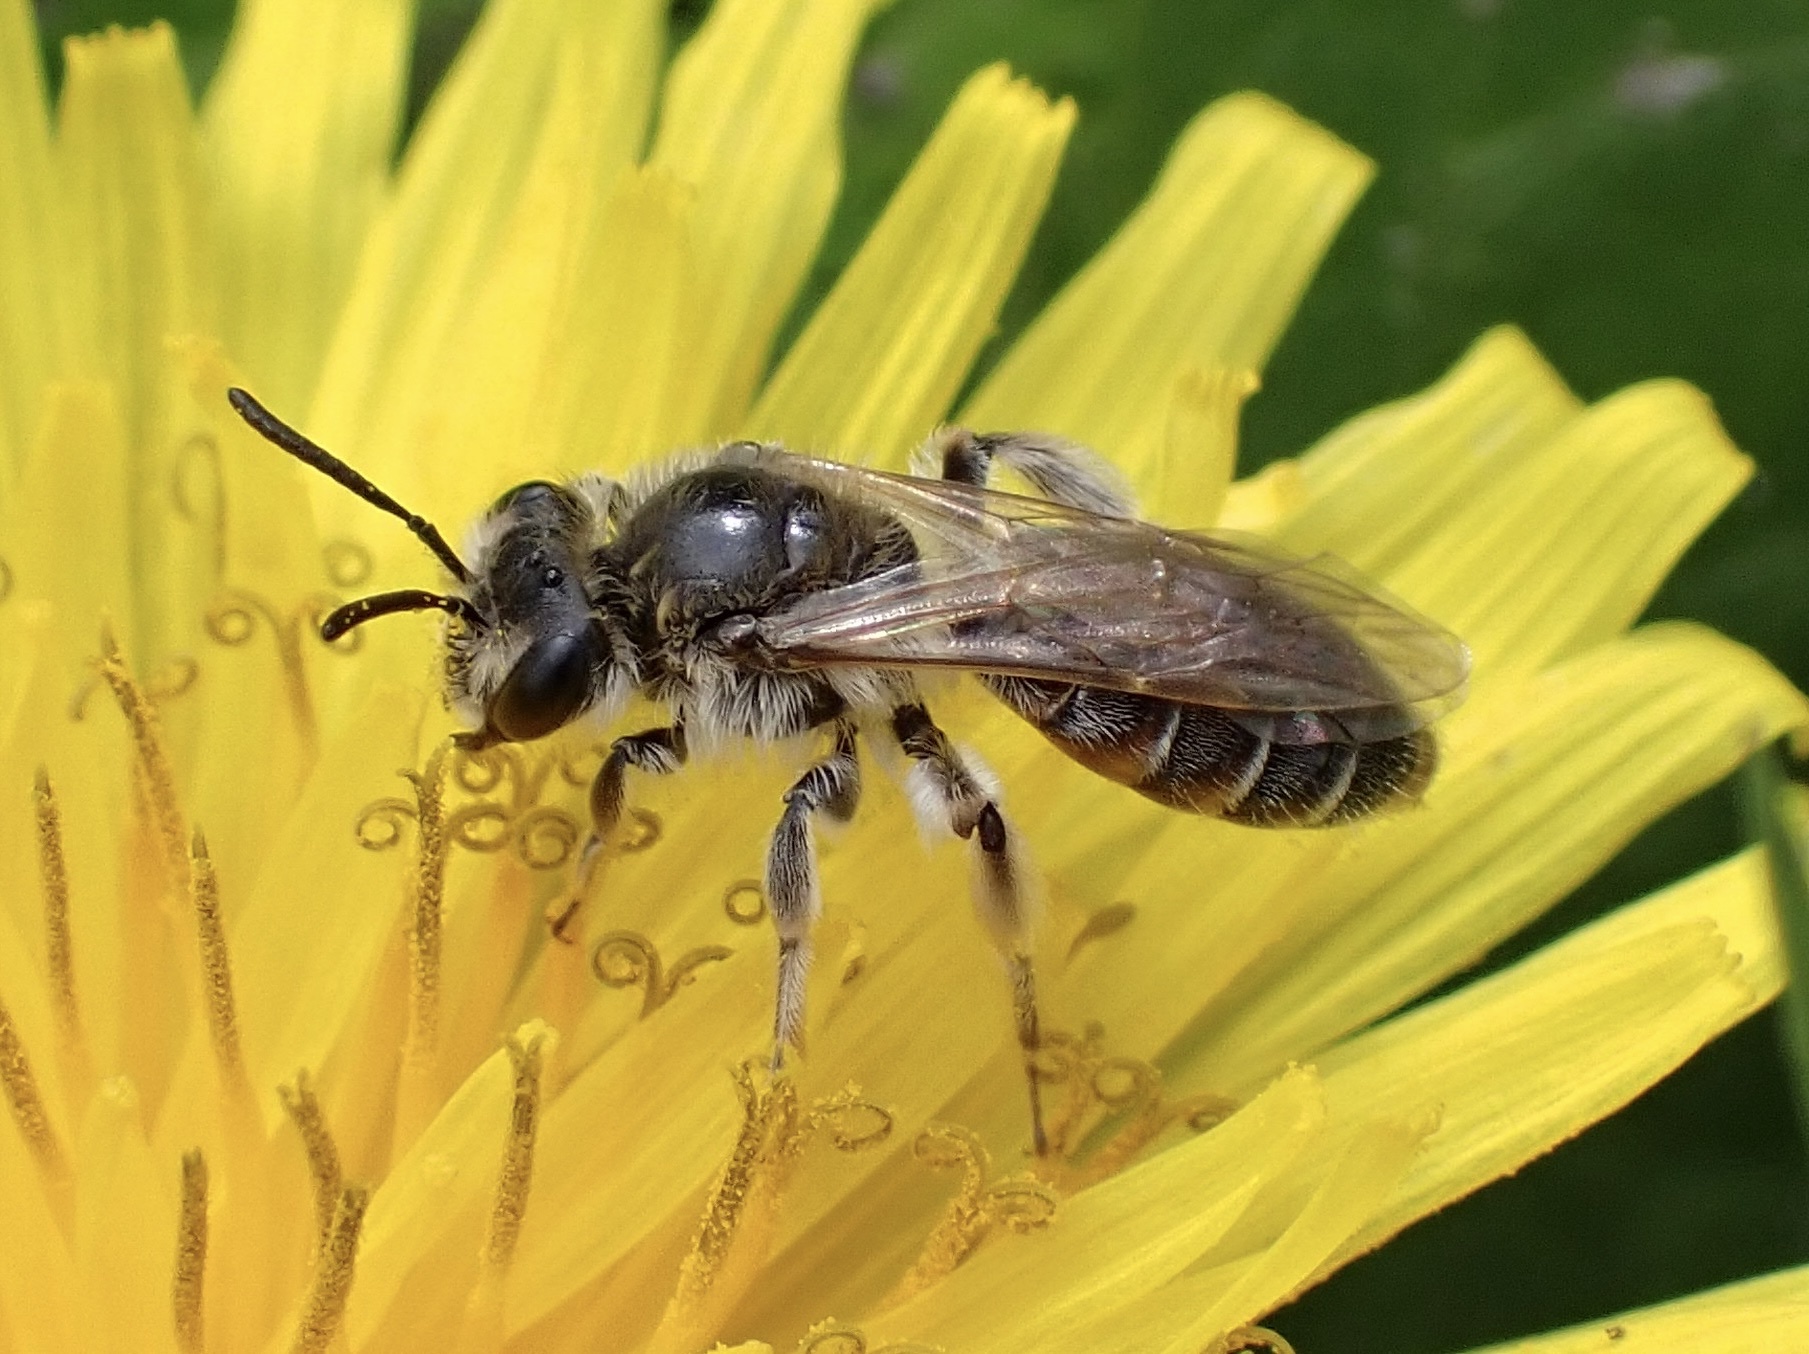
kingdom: Animalia
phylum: Arthropoda
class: Insecta
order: Hymenoptera
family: Andrenidae
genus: Andrena
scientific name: Andrena ventralis
